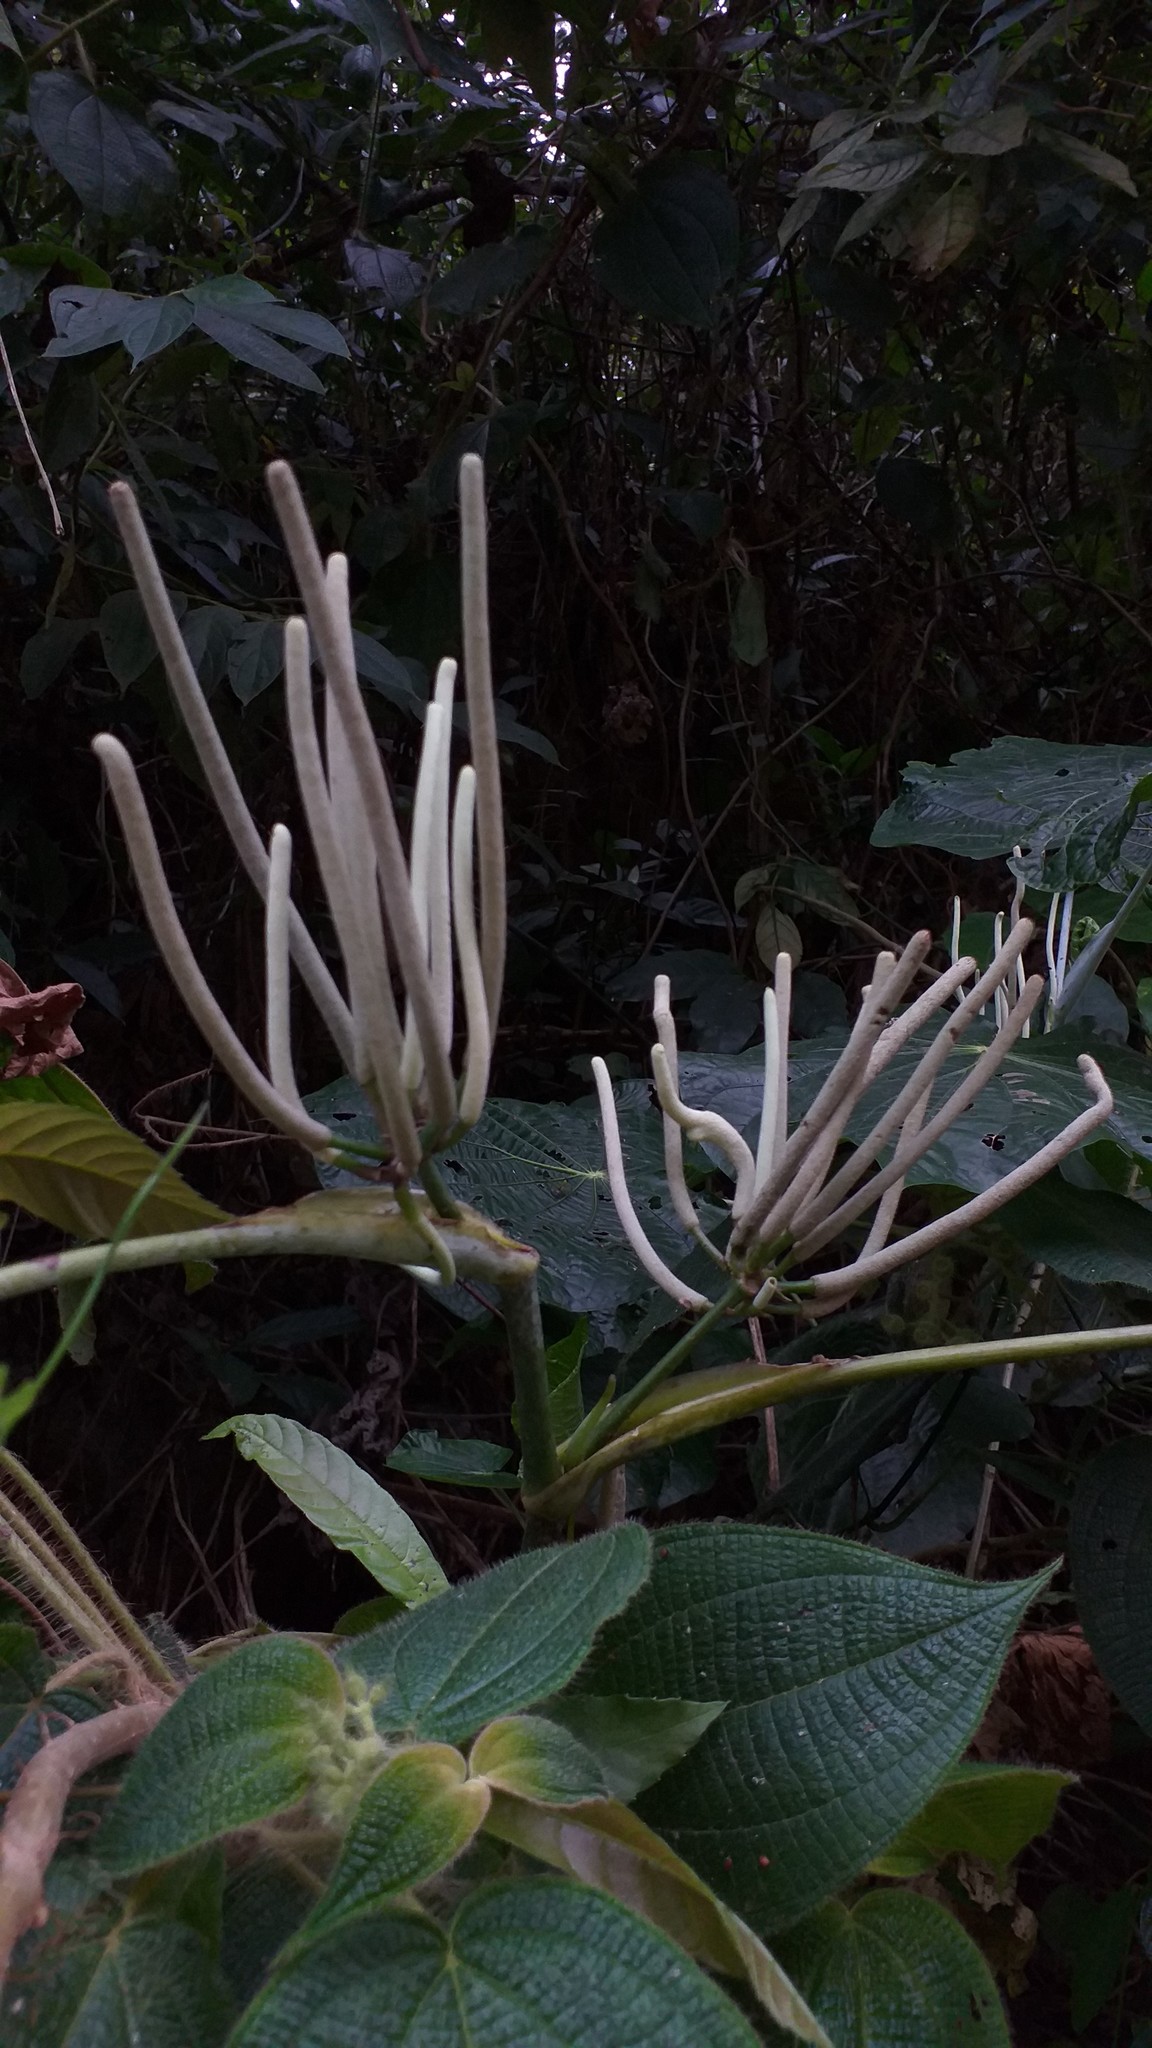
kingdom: Plantae
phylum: Tracheophyta
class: Magnoliopsida
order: Piperales
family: Piperaceae
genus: Piper
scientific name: Piper umbellatum
